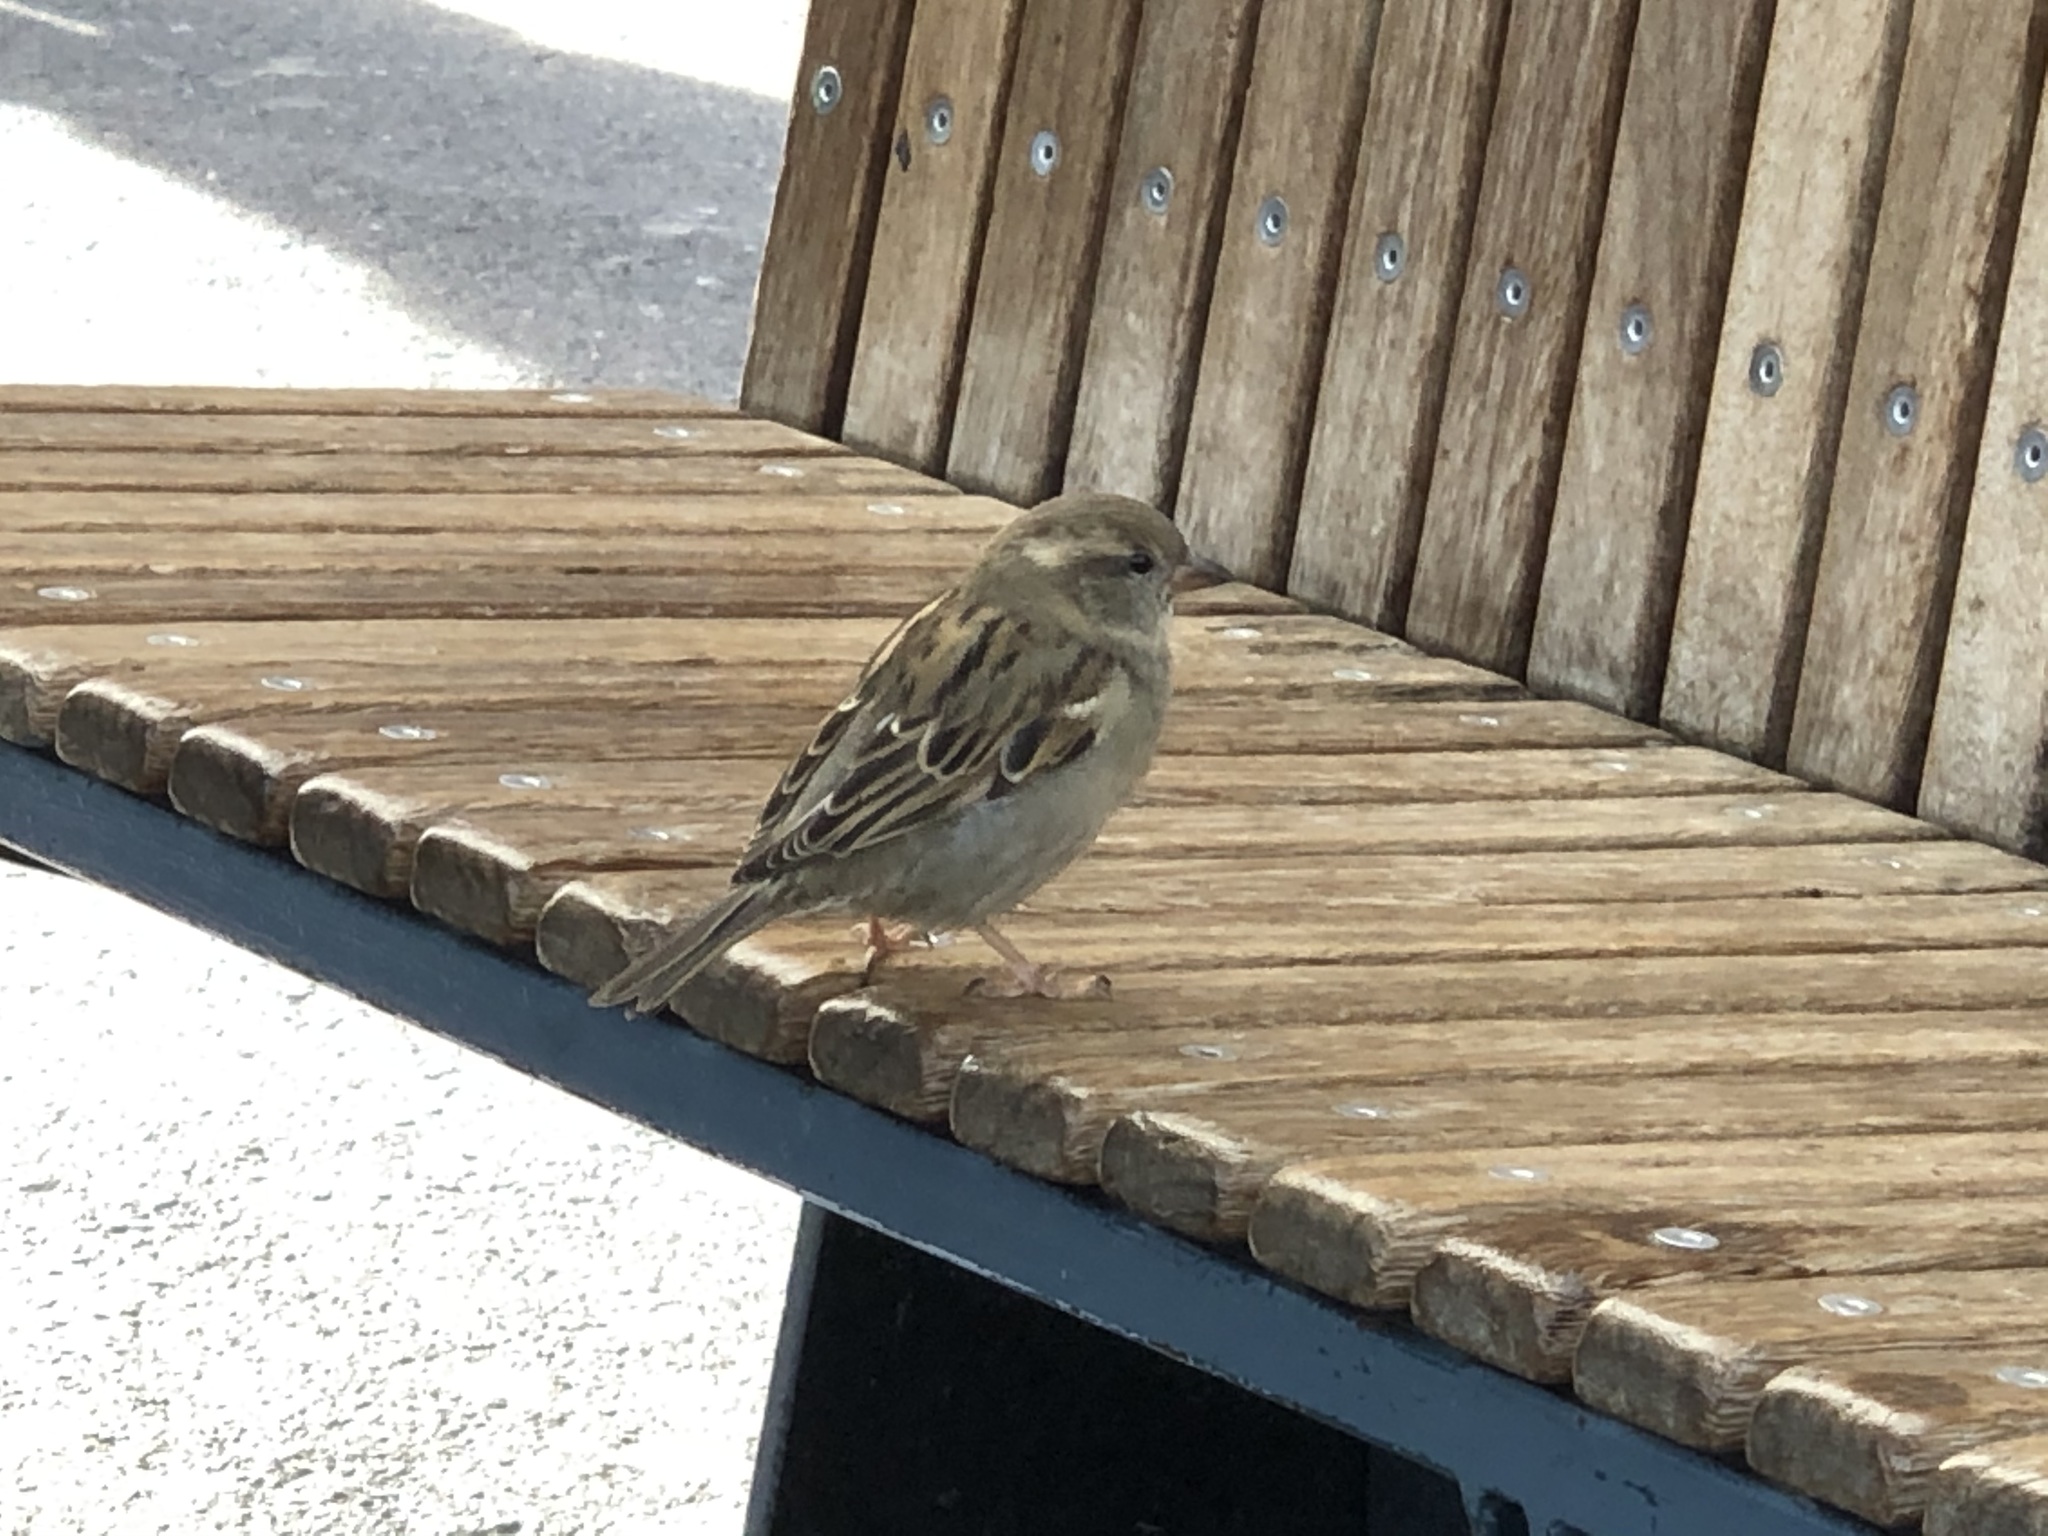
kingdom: Animalia
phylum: Chordata
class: Aves
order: Passeriformes
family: Passeridae
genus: Passer
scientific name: Passer domesticus
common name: House sparrow
